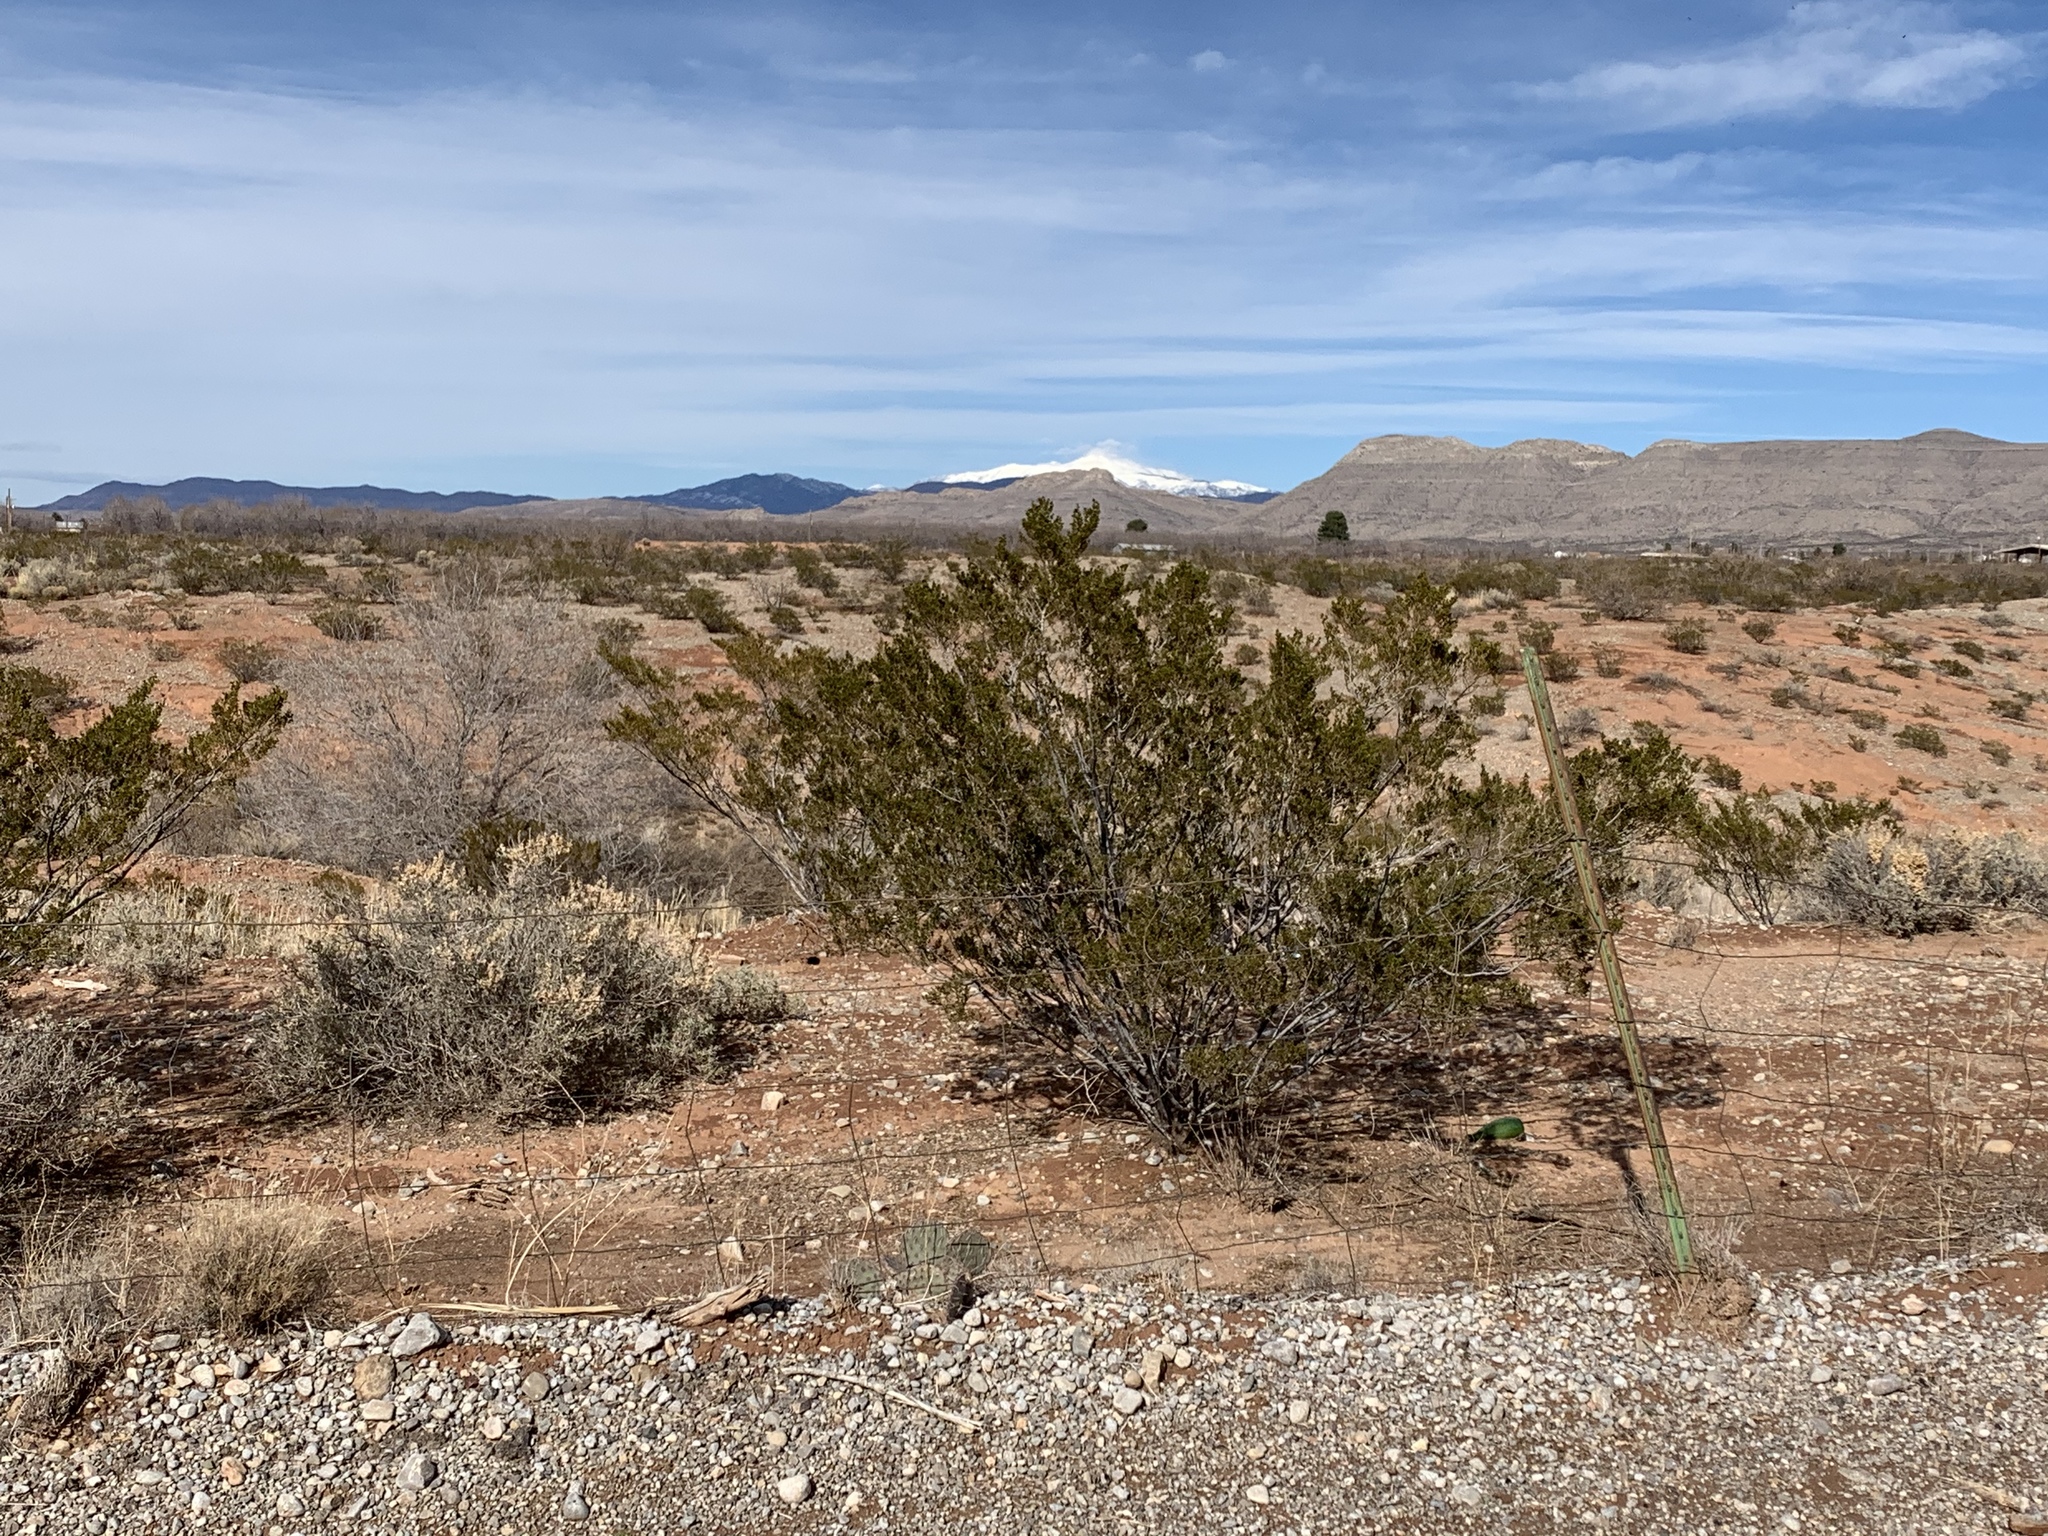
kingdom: Plantae
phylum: Tracheophyta
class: Magnoliopsida
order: Zygophyllales
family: Zygophyllaceae
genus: Larrea
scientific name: Larrea tridentata
